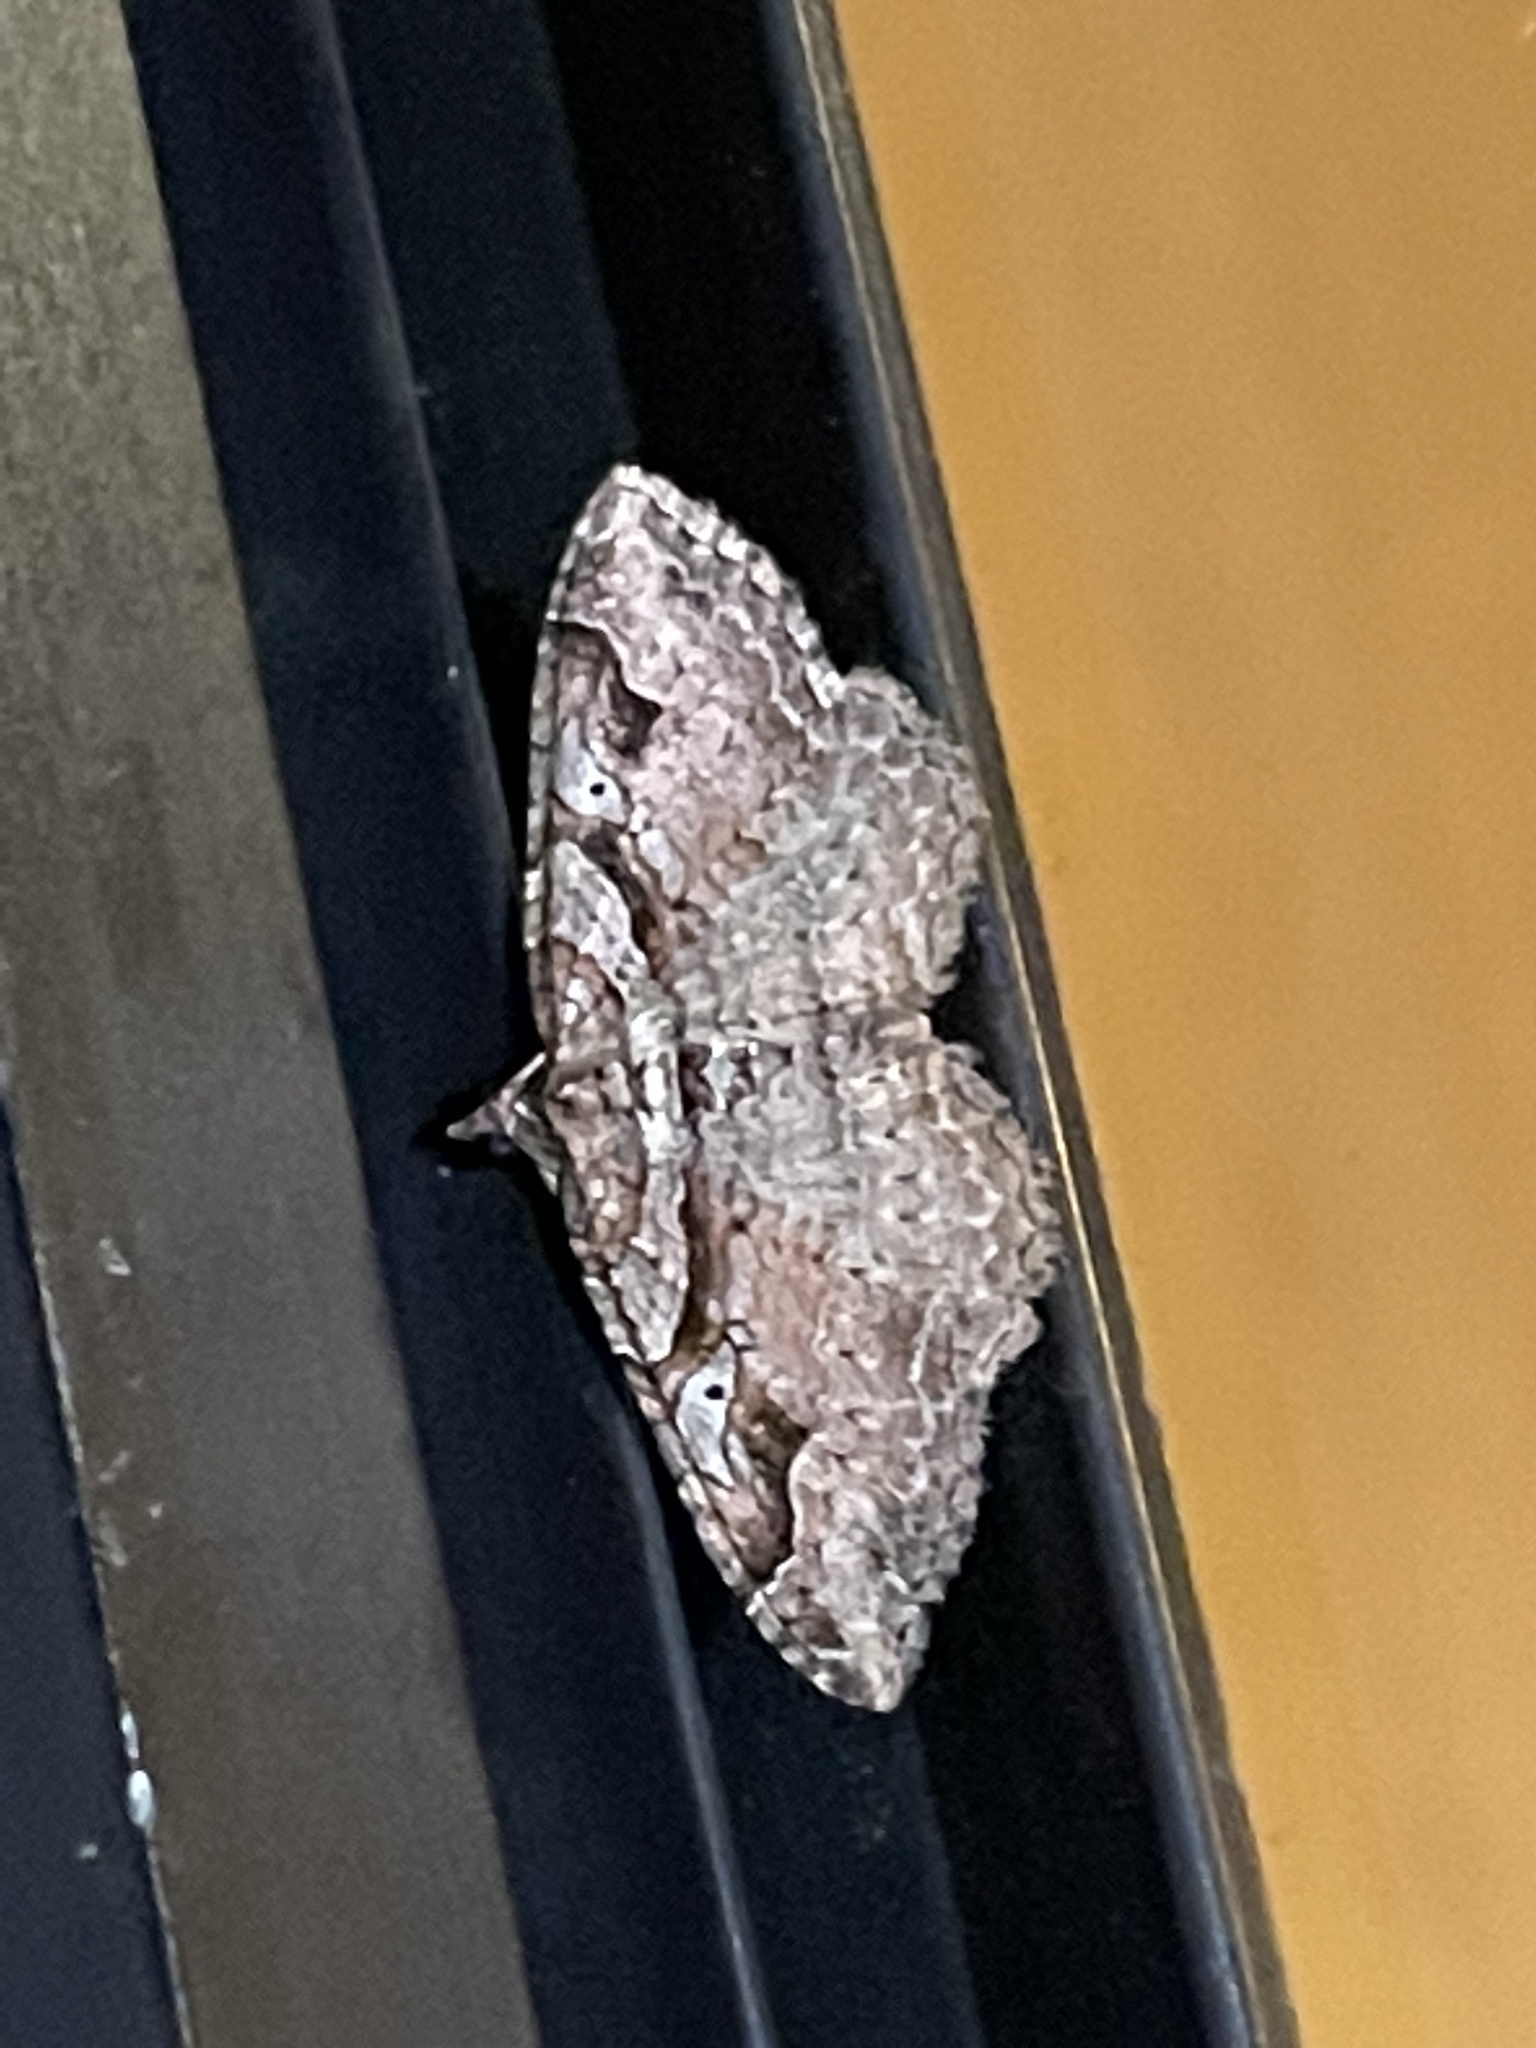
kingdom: Animalia
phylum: Arthropoda
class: Insecta
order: Lepidoptera
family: Geometridae
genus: Costaconvexa
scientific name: Costaconvexa centrostrigaria
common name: Bent-line carpet
